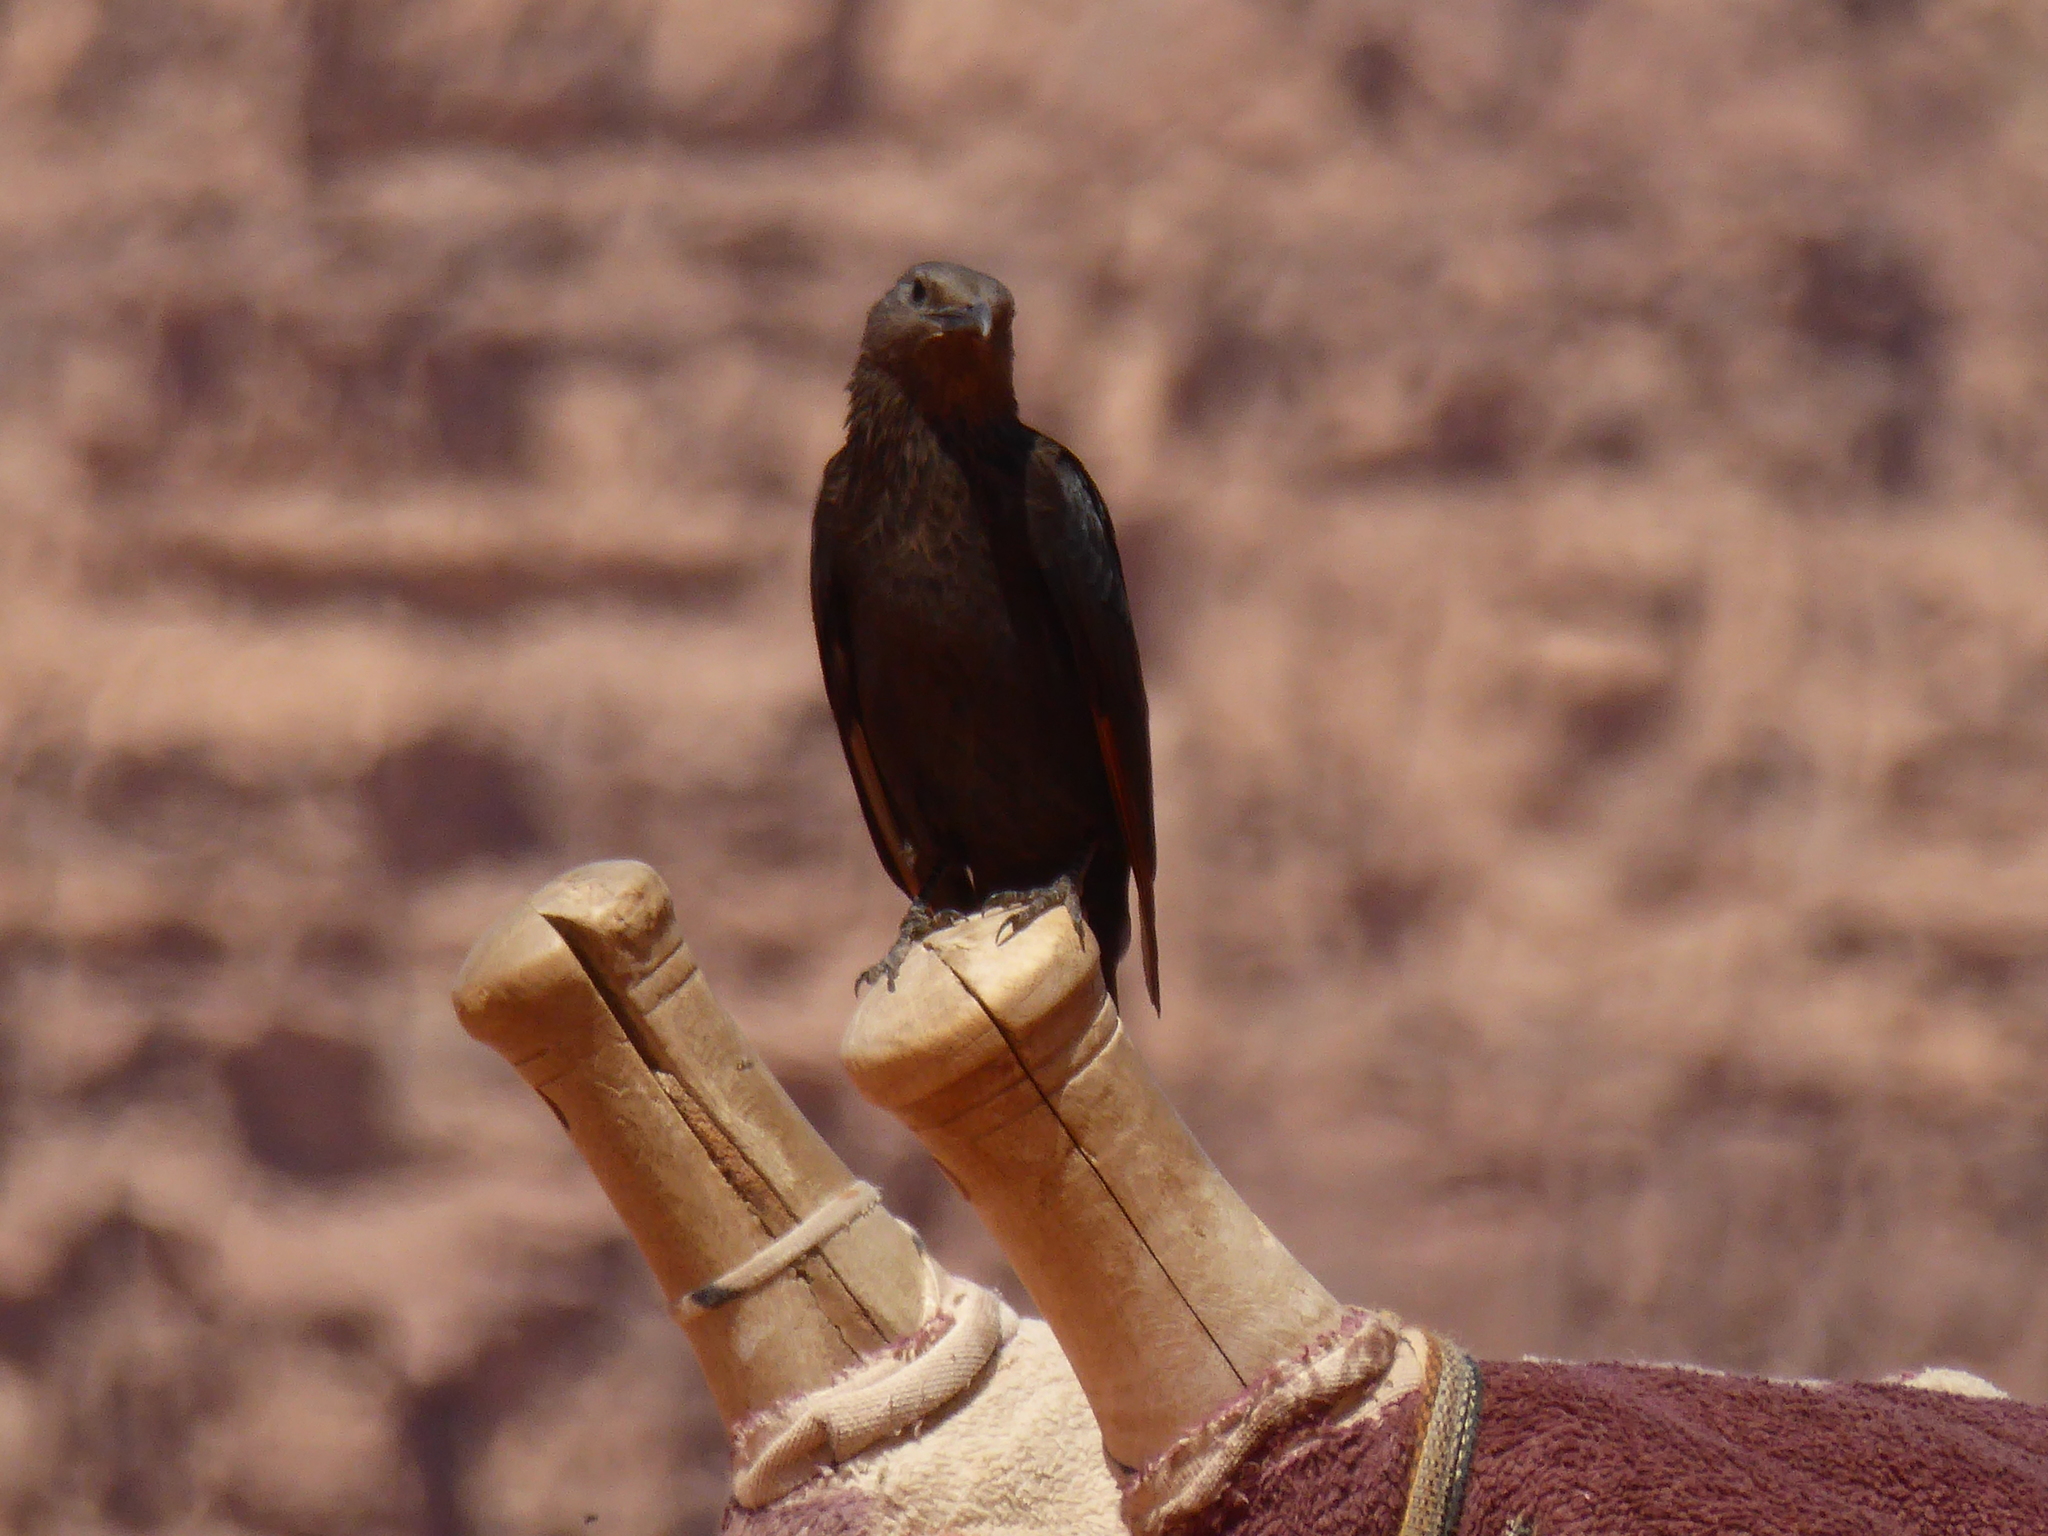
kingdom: Animalia
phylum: Chordata
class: Aves
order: Passeriformes
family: Sturnidae
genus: Onychognathus
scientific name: Onychognathus tristramii
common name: Tristram's starling
